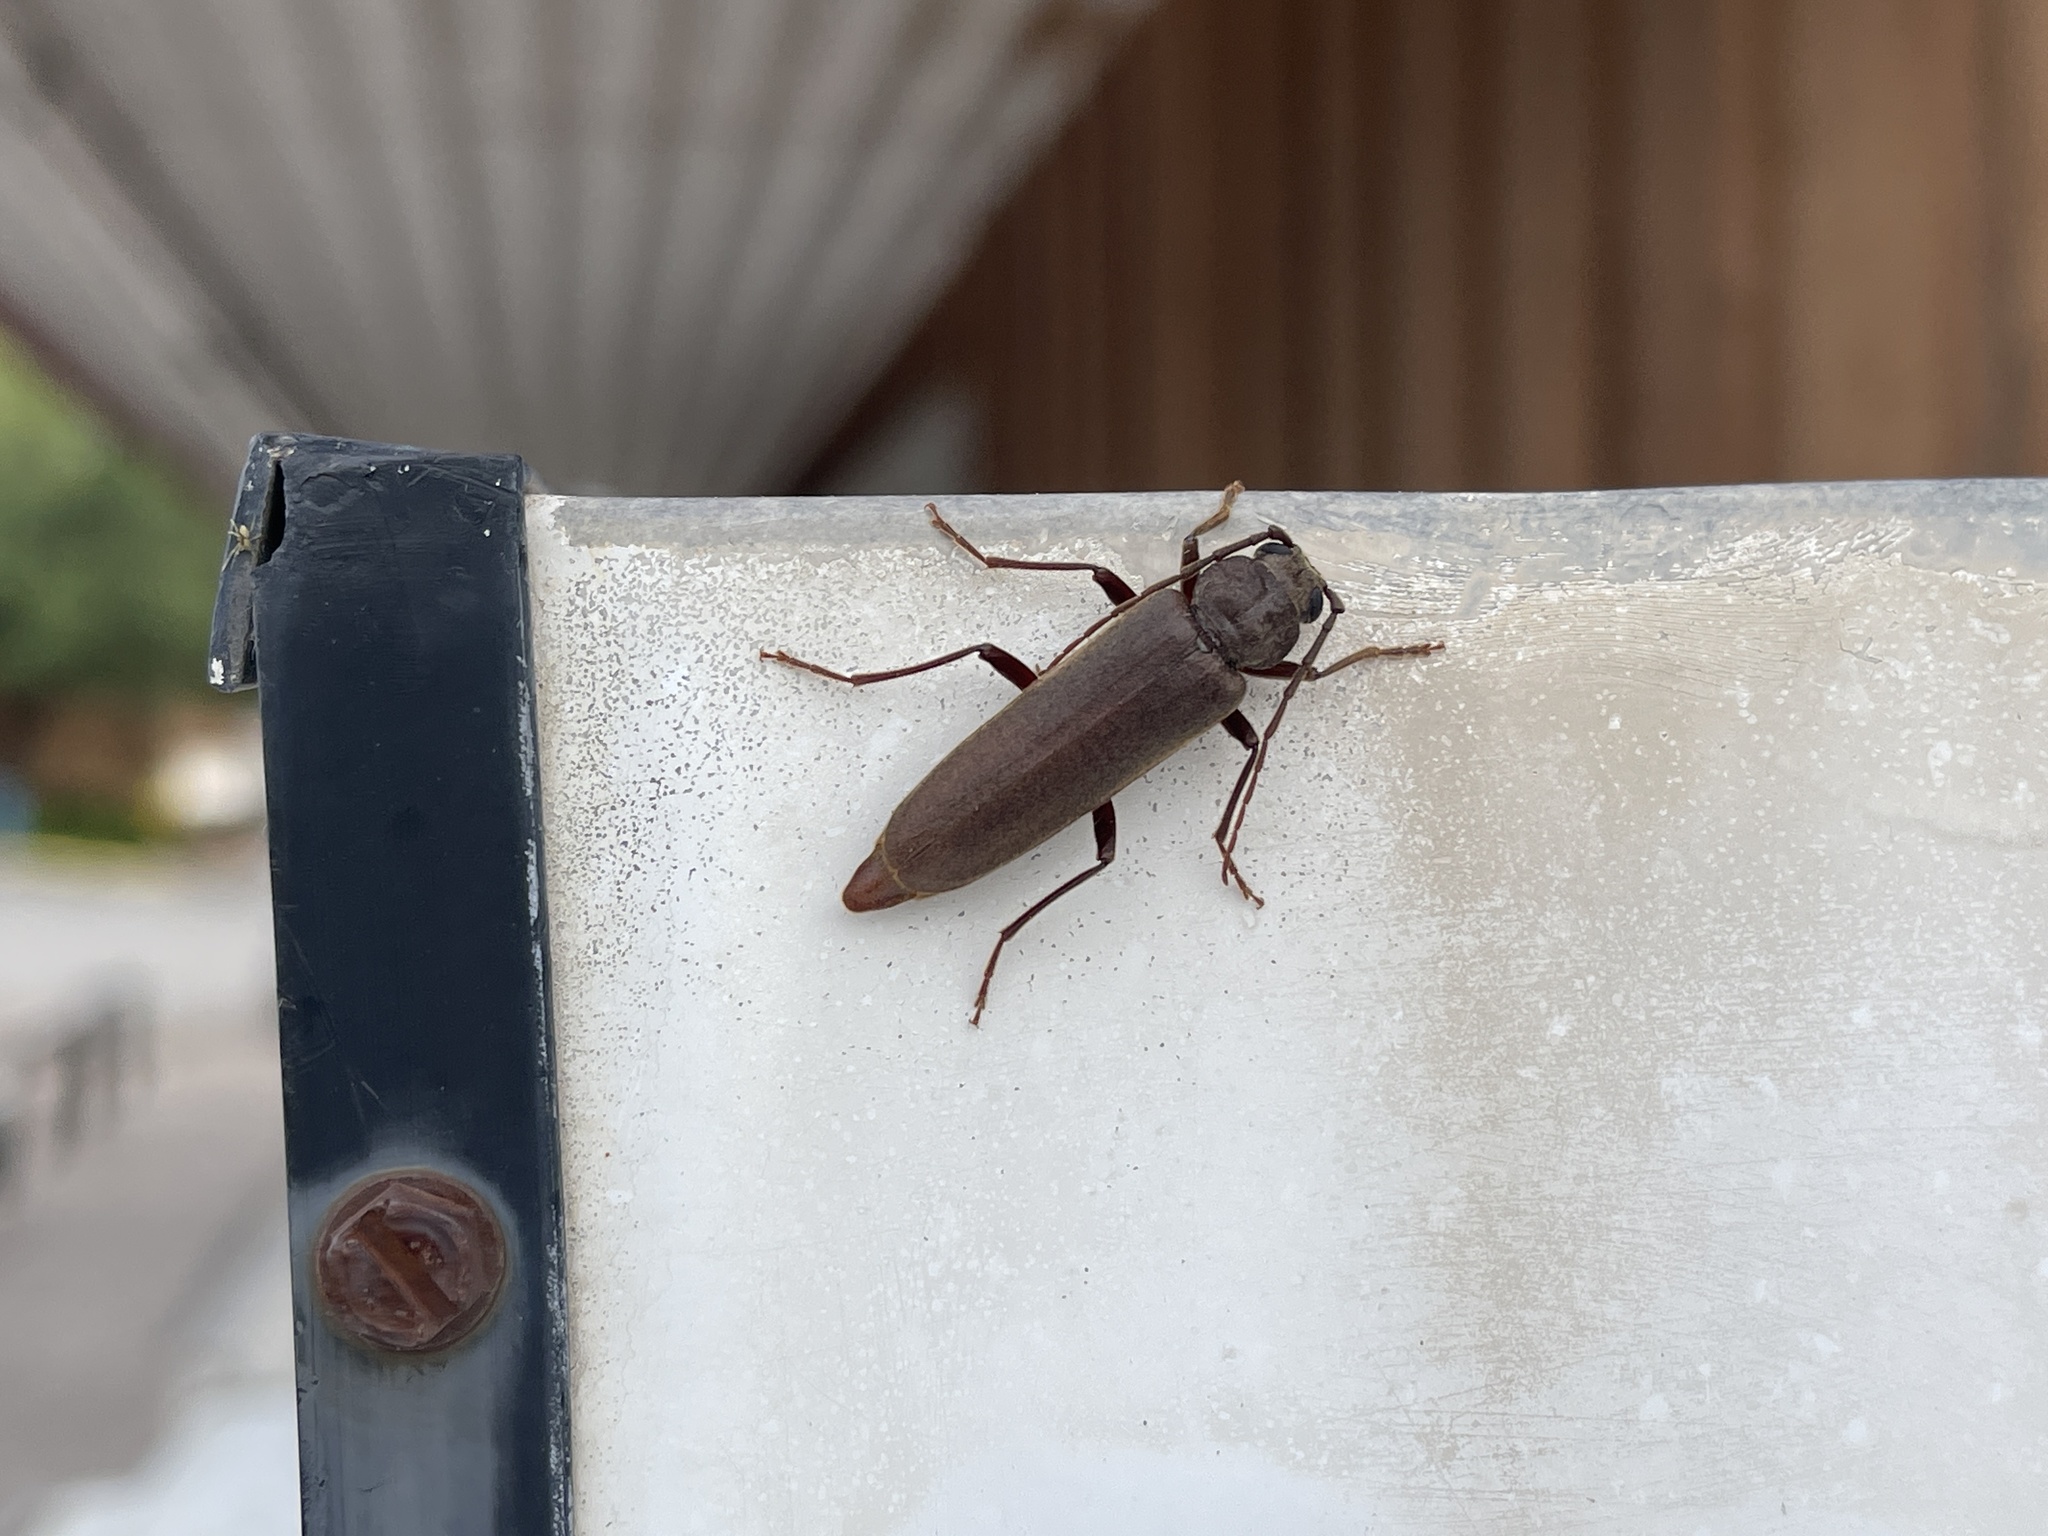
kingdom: Animalia
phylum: Arthropoda
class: Insecta
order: Coleoptera
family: Cerambycidae
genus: Arhopalus
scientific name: Arhopalus rusticus
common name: Rust pine borer
